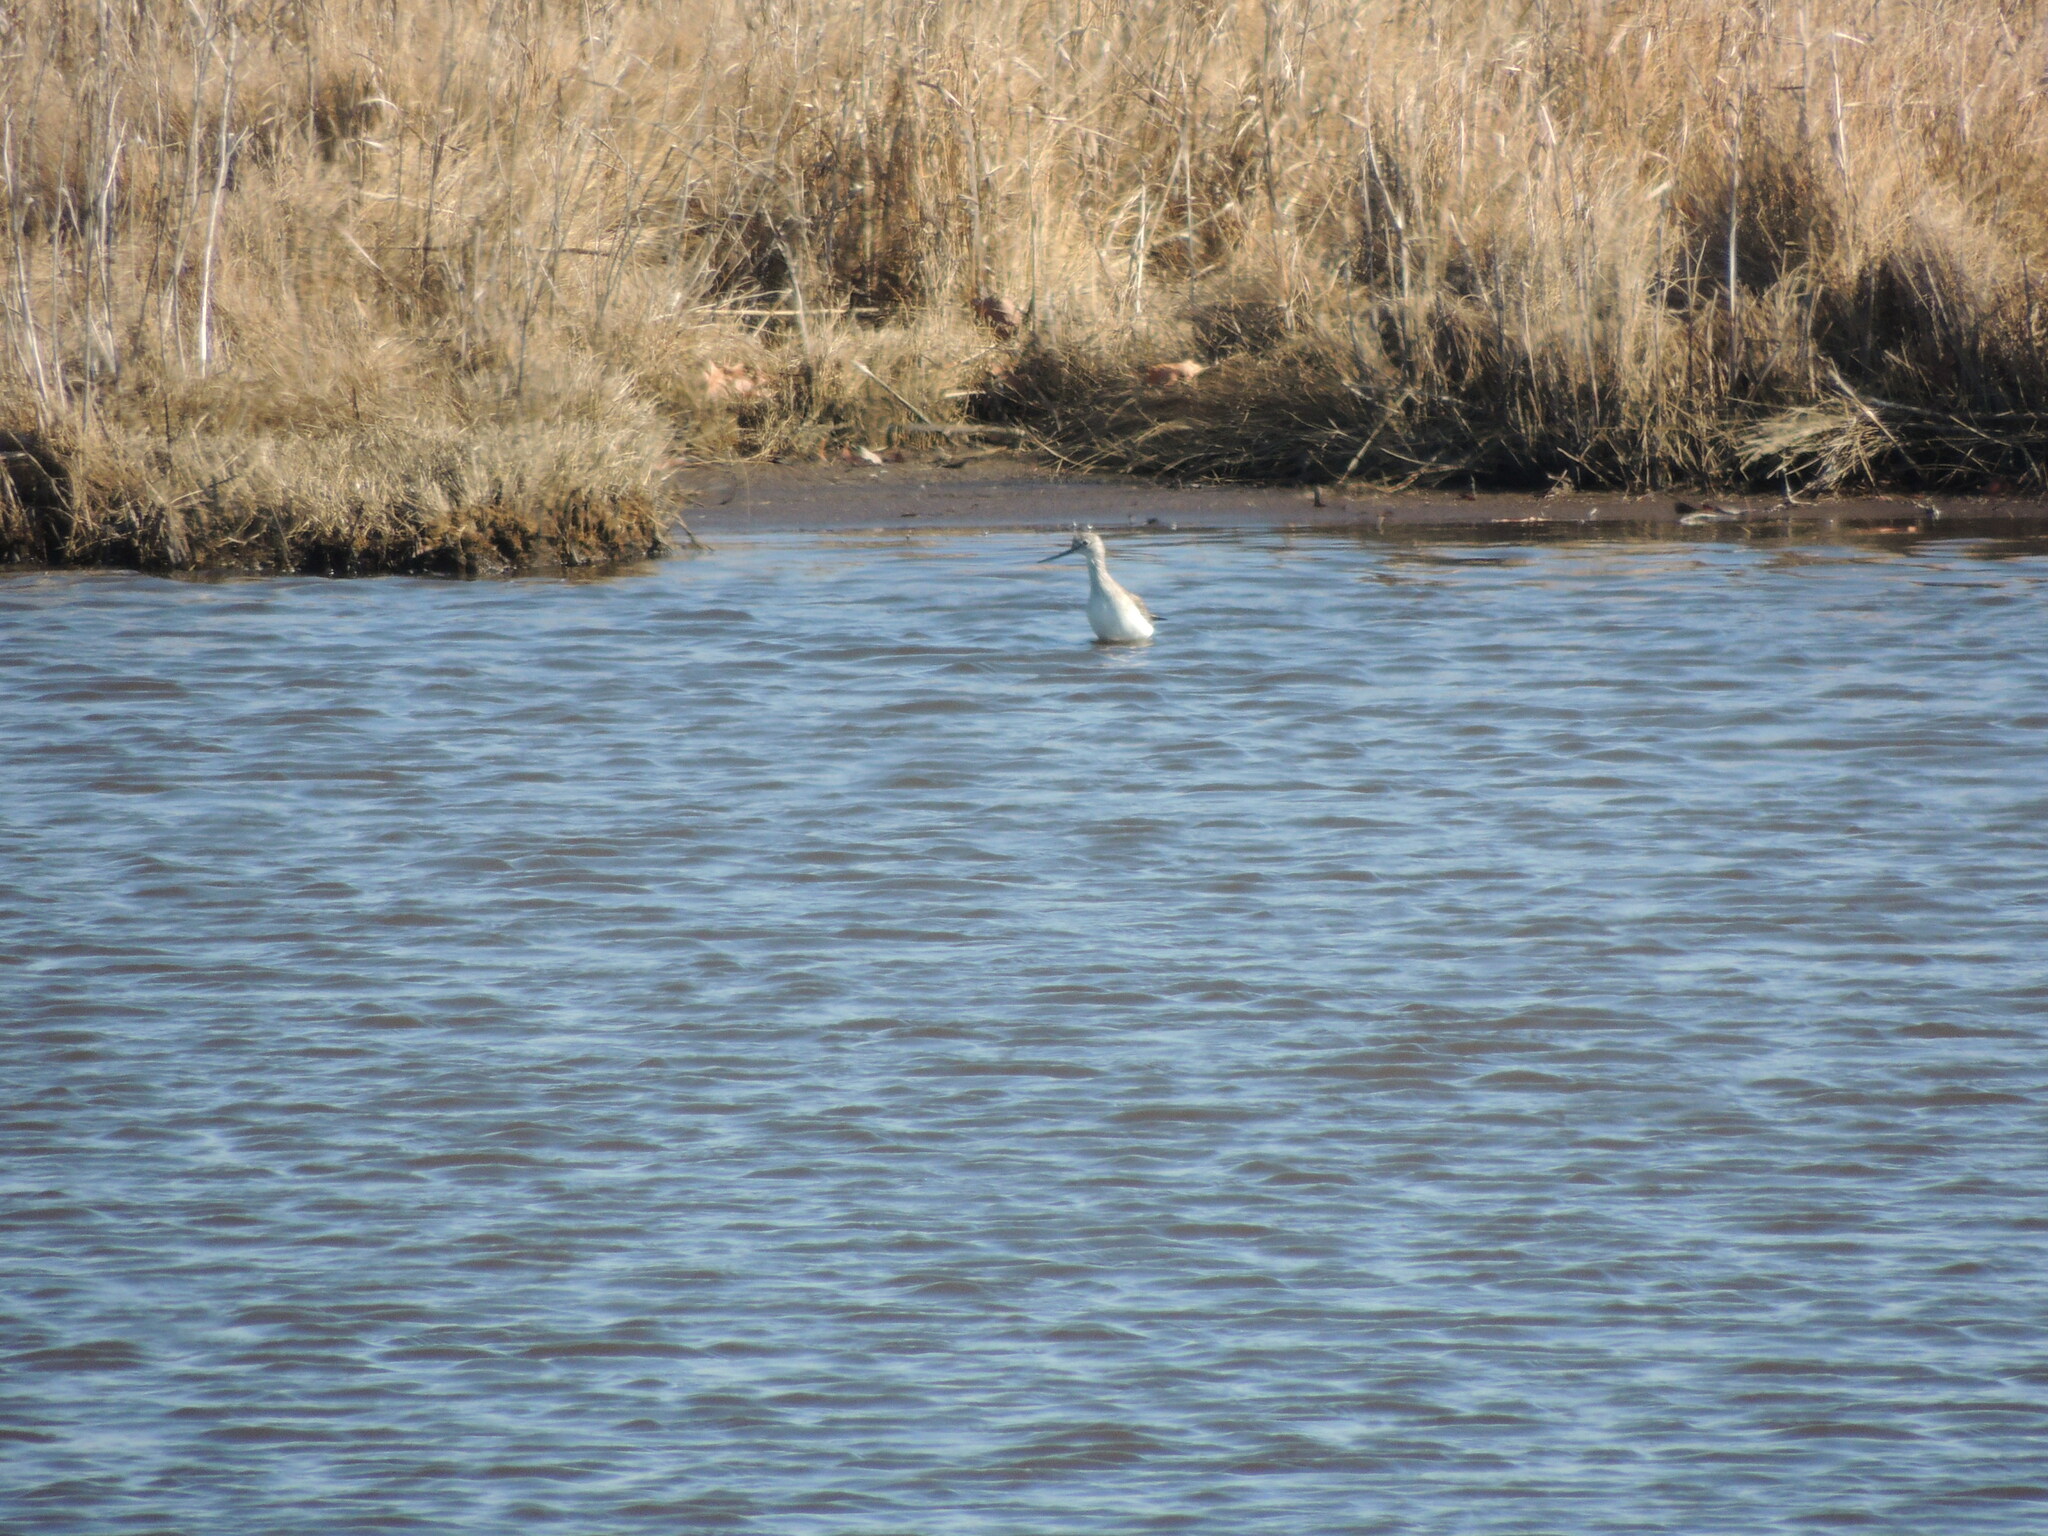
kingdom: Animalia
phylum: Chordata
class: Aves
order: Charadriiformes
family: Scolopacidae
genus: Tringa
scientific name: Tringa flavipes
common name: Lesser yellowlegs
